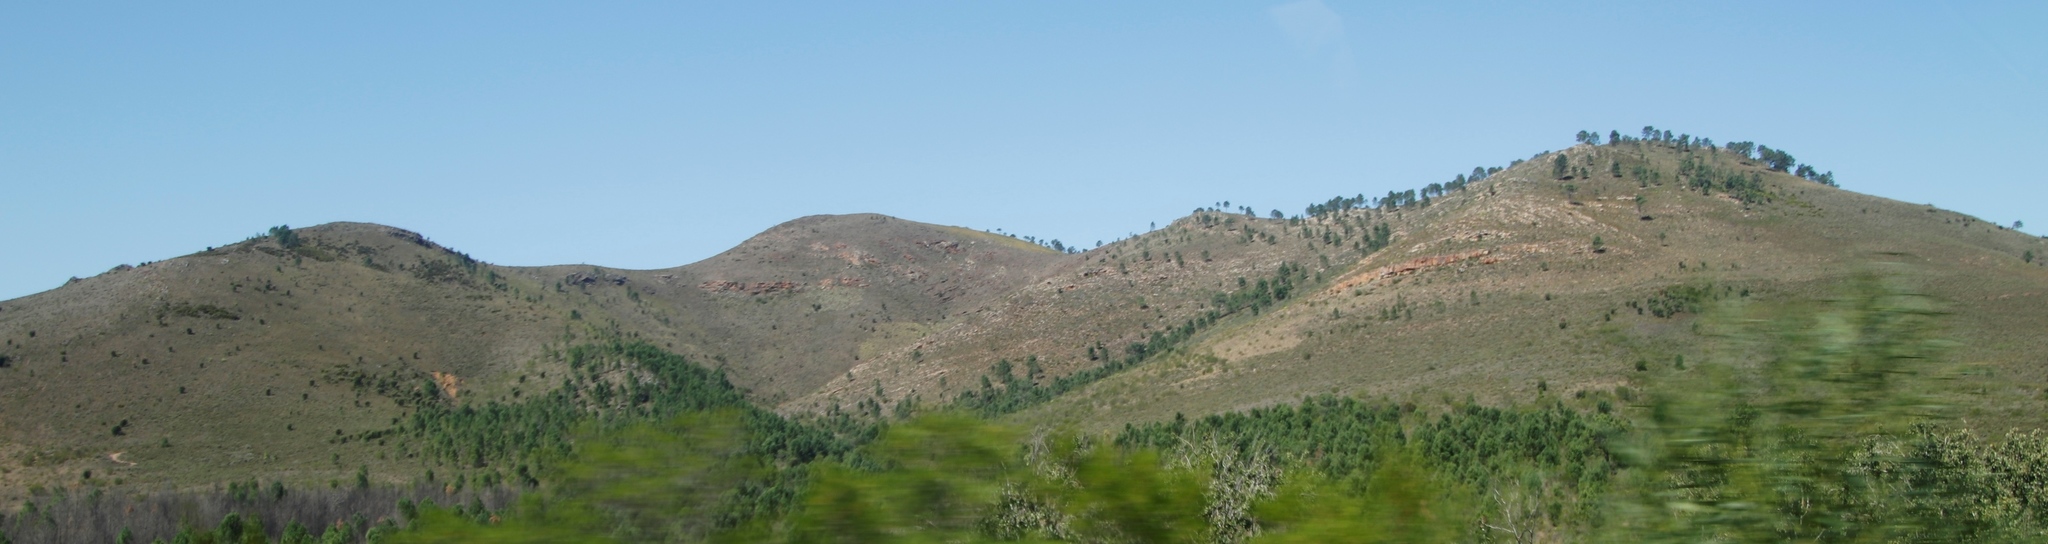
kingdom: Plantae
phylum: Tracheophyta
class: Pinopsida
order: Pinales
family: Pinaceae
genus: Pinus
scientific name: Pinus pinaster
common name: Maritime pine
